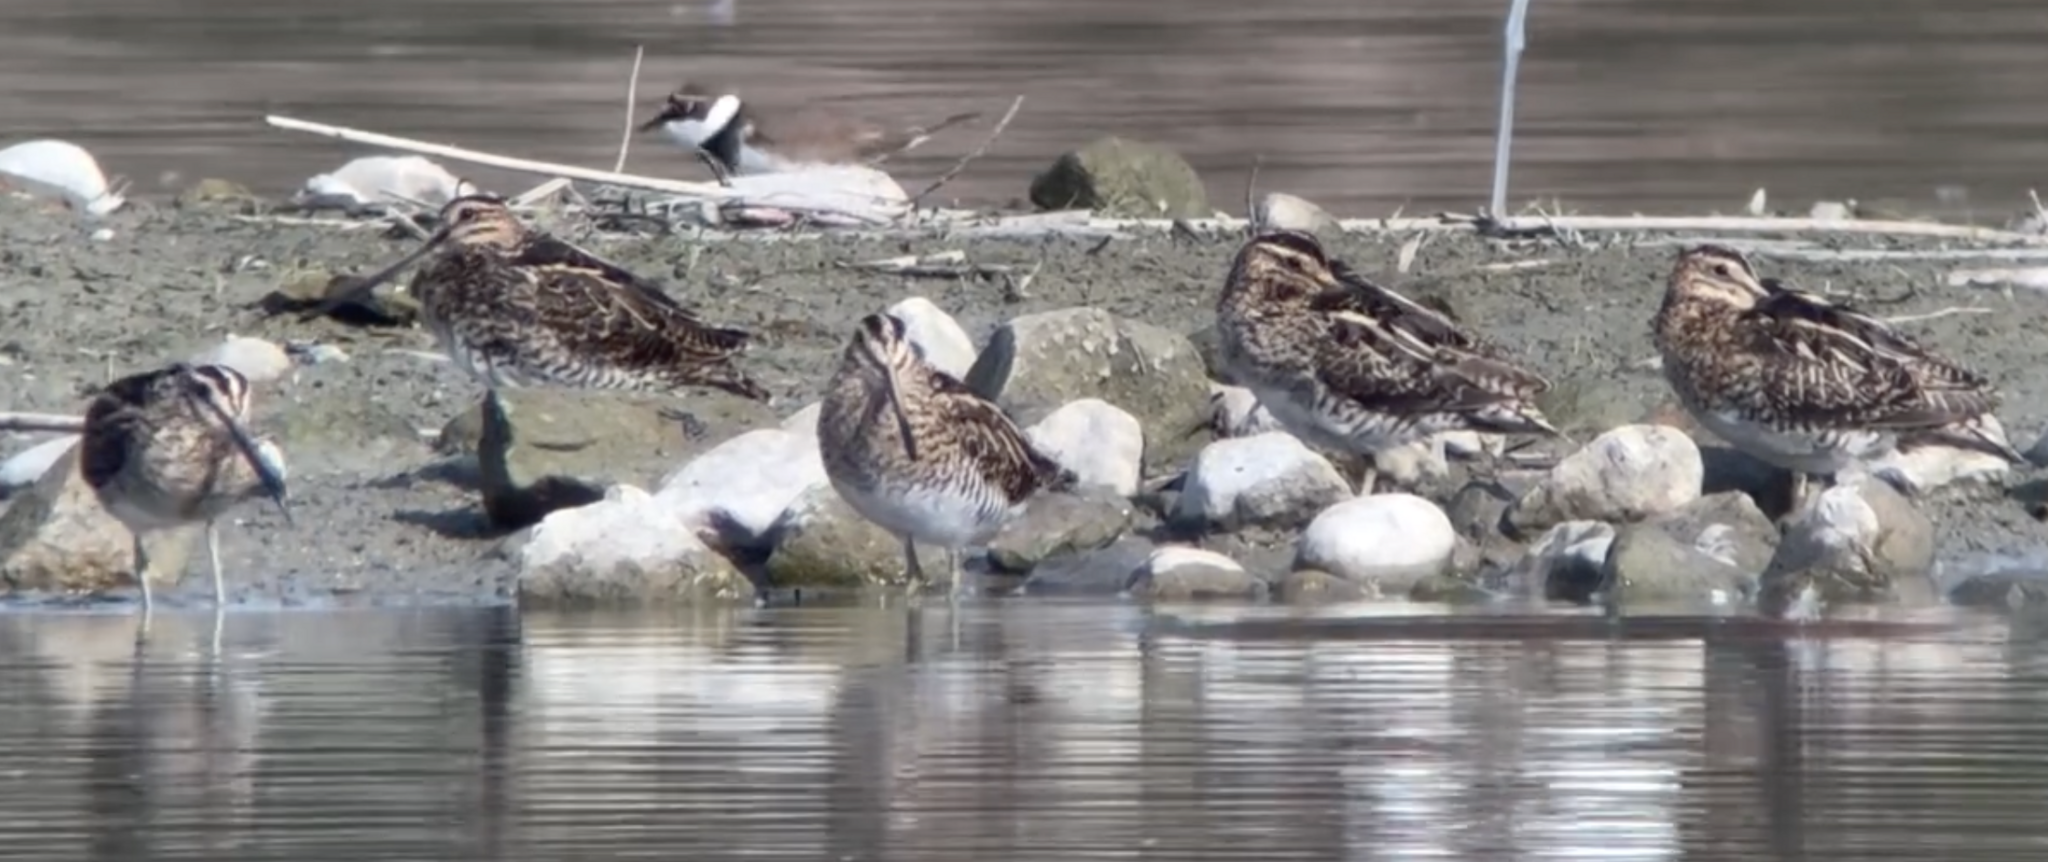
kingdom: Animalia
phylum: Chordata
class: Aves
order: Charadriiformes
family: Scolopacidae
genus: Gallinago
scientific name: Gallinago gallinago
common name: Common snipe
